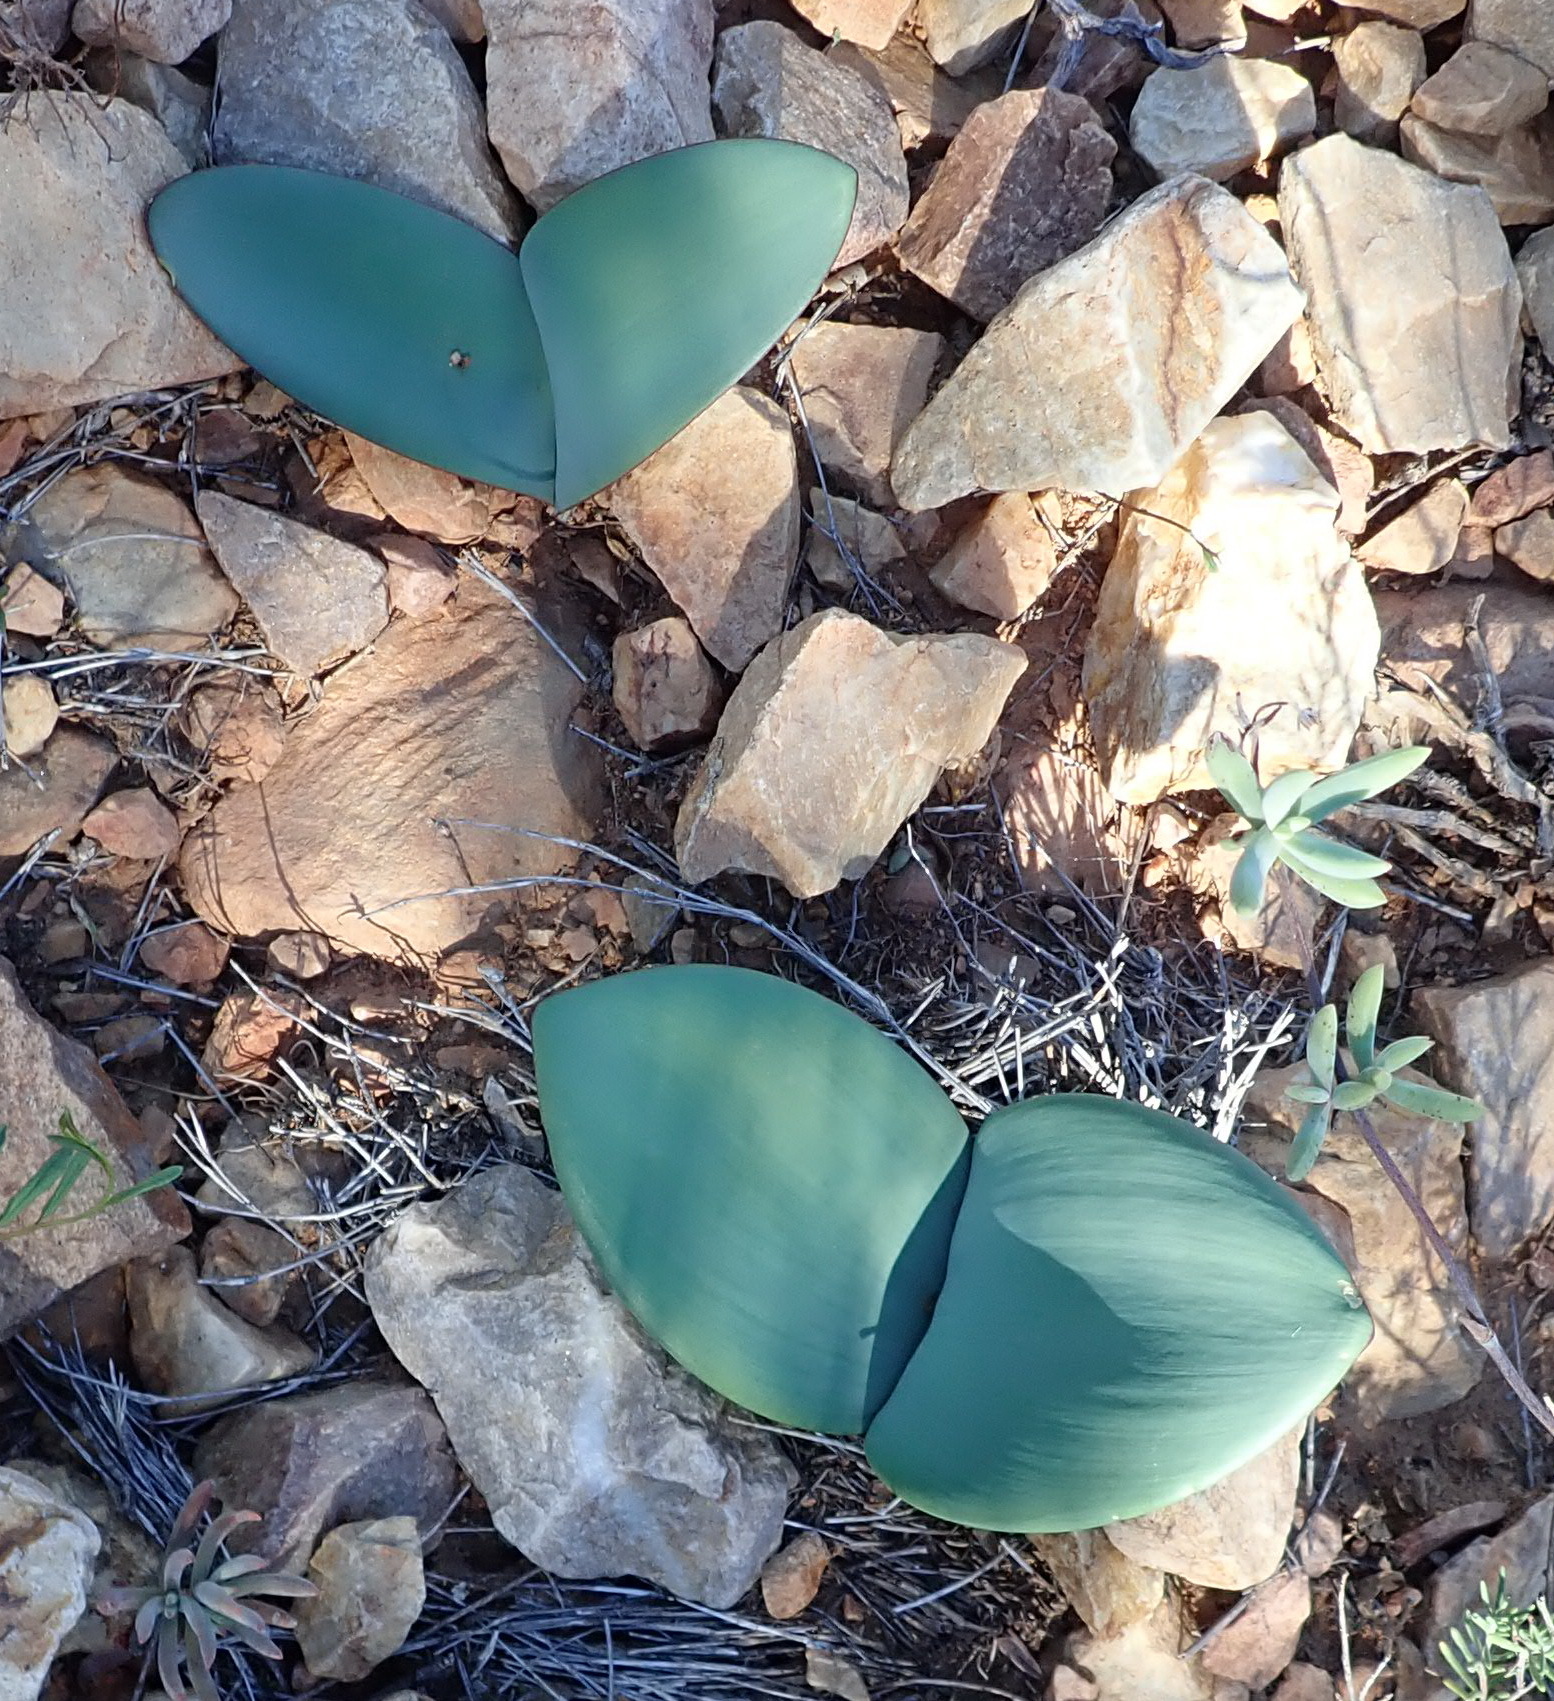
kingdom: Plantae
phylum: Tracheophyta
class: Liliopsida
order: Asparagales
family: Amaryllidaceae
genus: Haemanthus
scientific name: Haemanthus coccineus
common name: Cape-tulip
